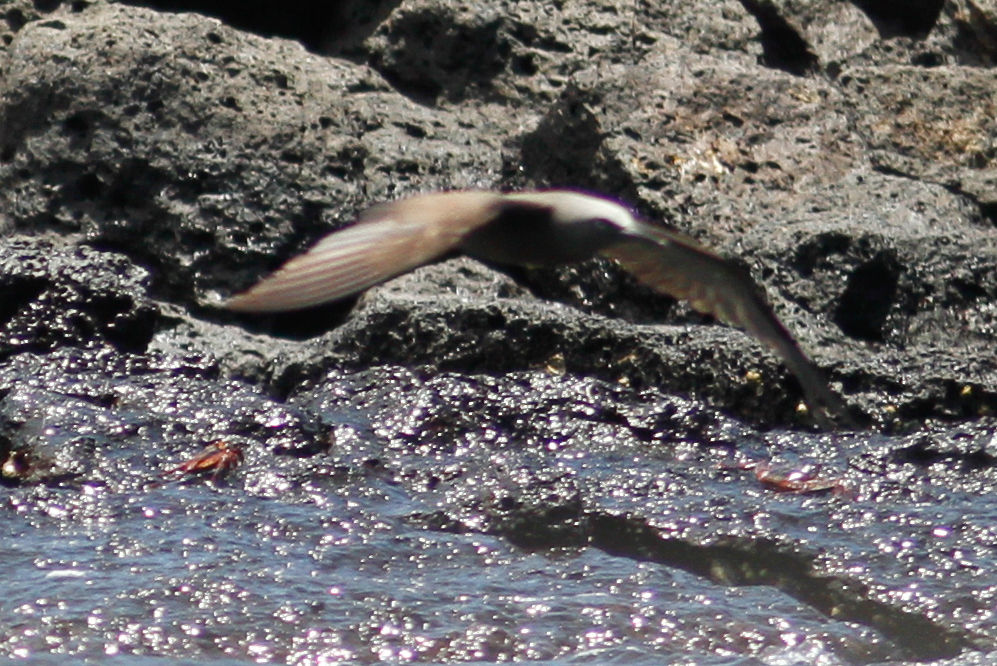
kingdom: Animalia
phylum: Chordata
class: Aves
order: Charadriiformes
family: Laridae
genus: Anous
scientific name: Anous stolidus
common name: Brown noddy
